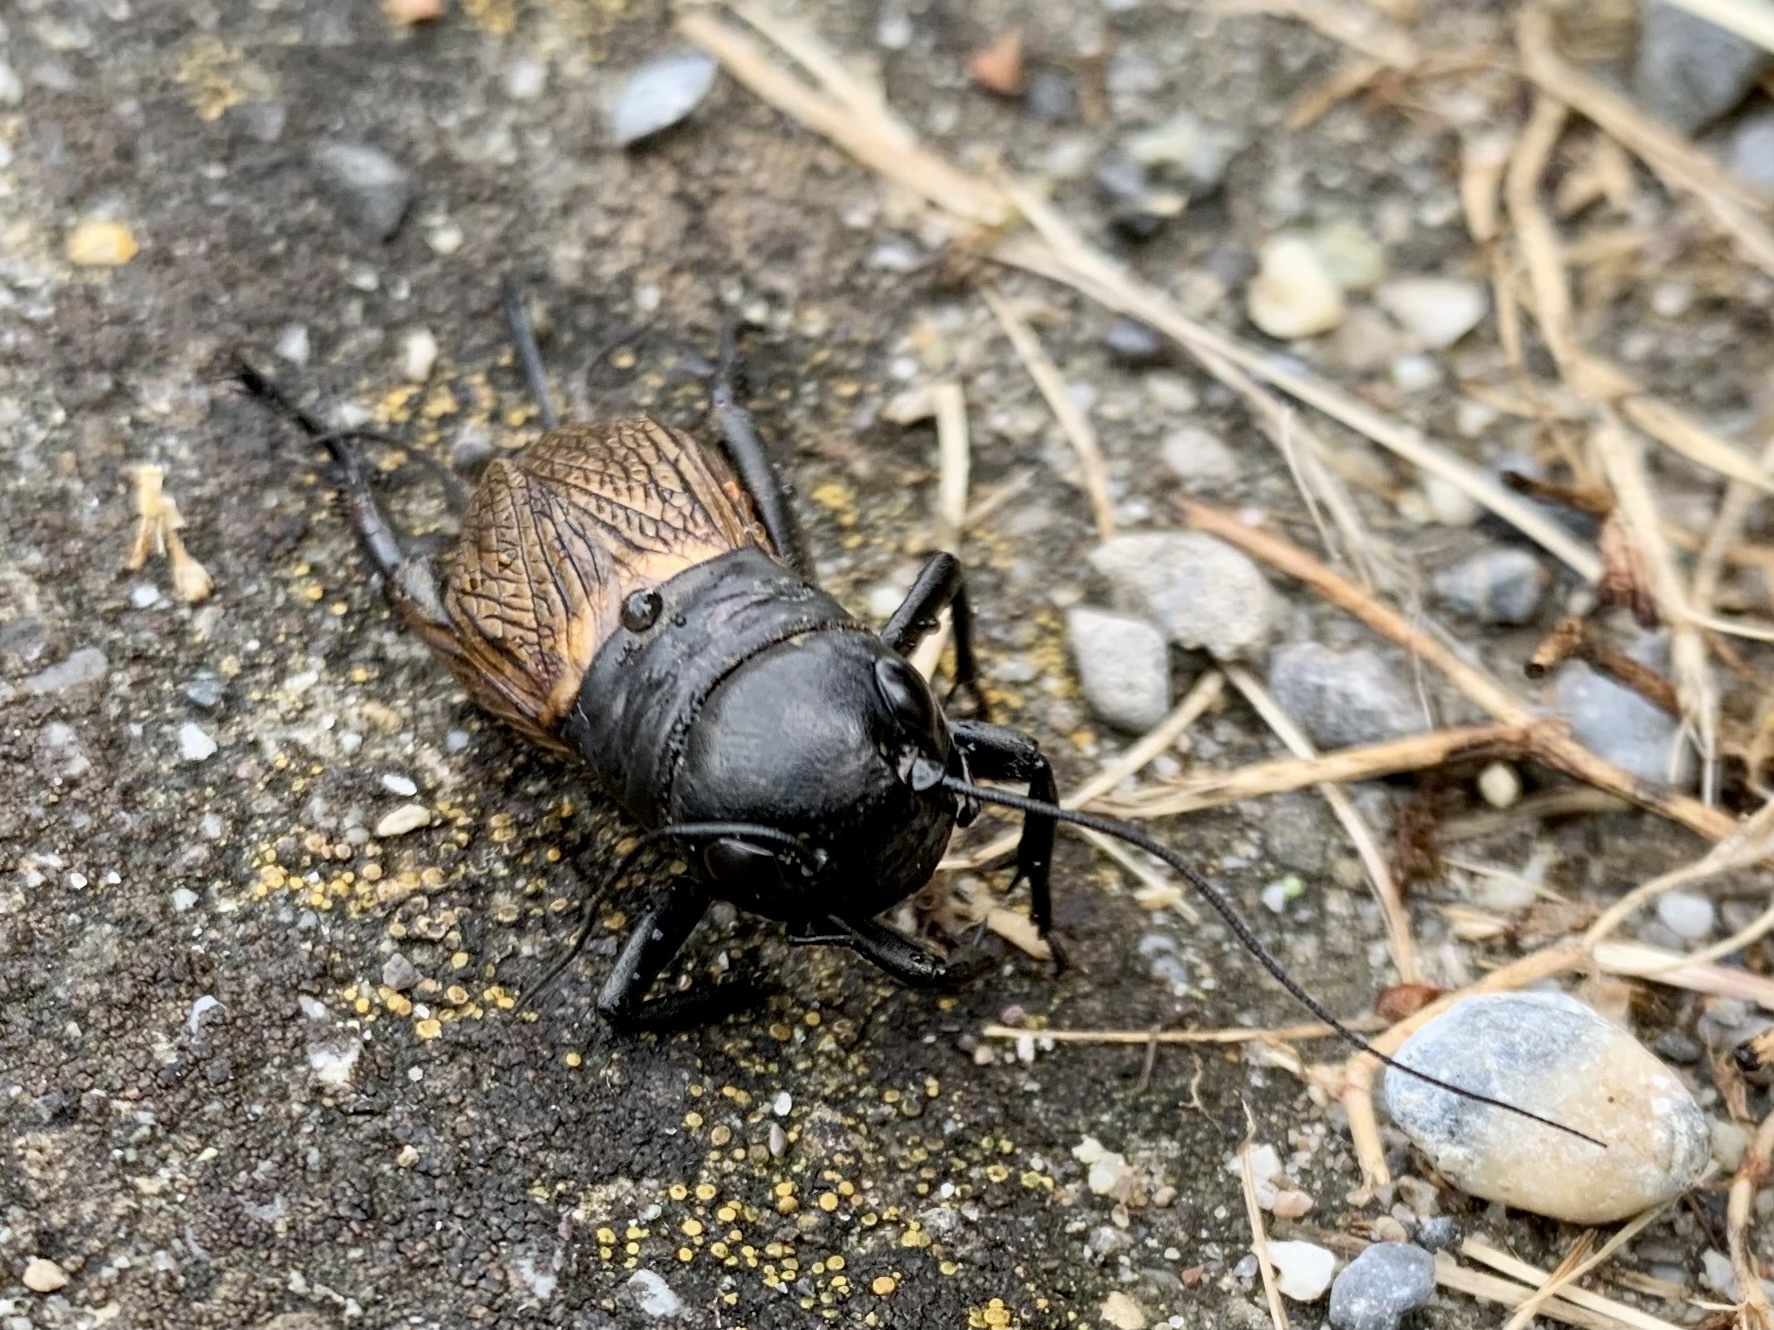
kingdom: Animalia
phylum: Arthropoda
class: Insecta
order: Orthoptera
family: Gryllidae
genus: Gryllus
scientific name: Gryllus campestris
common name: Field cricket
